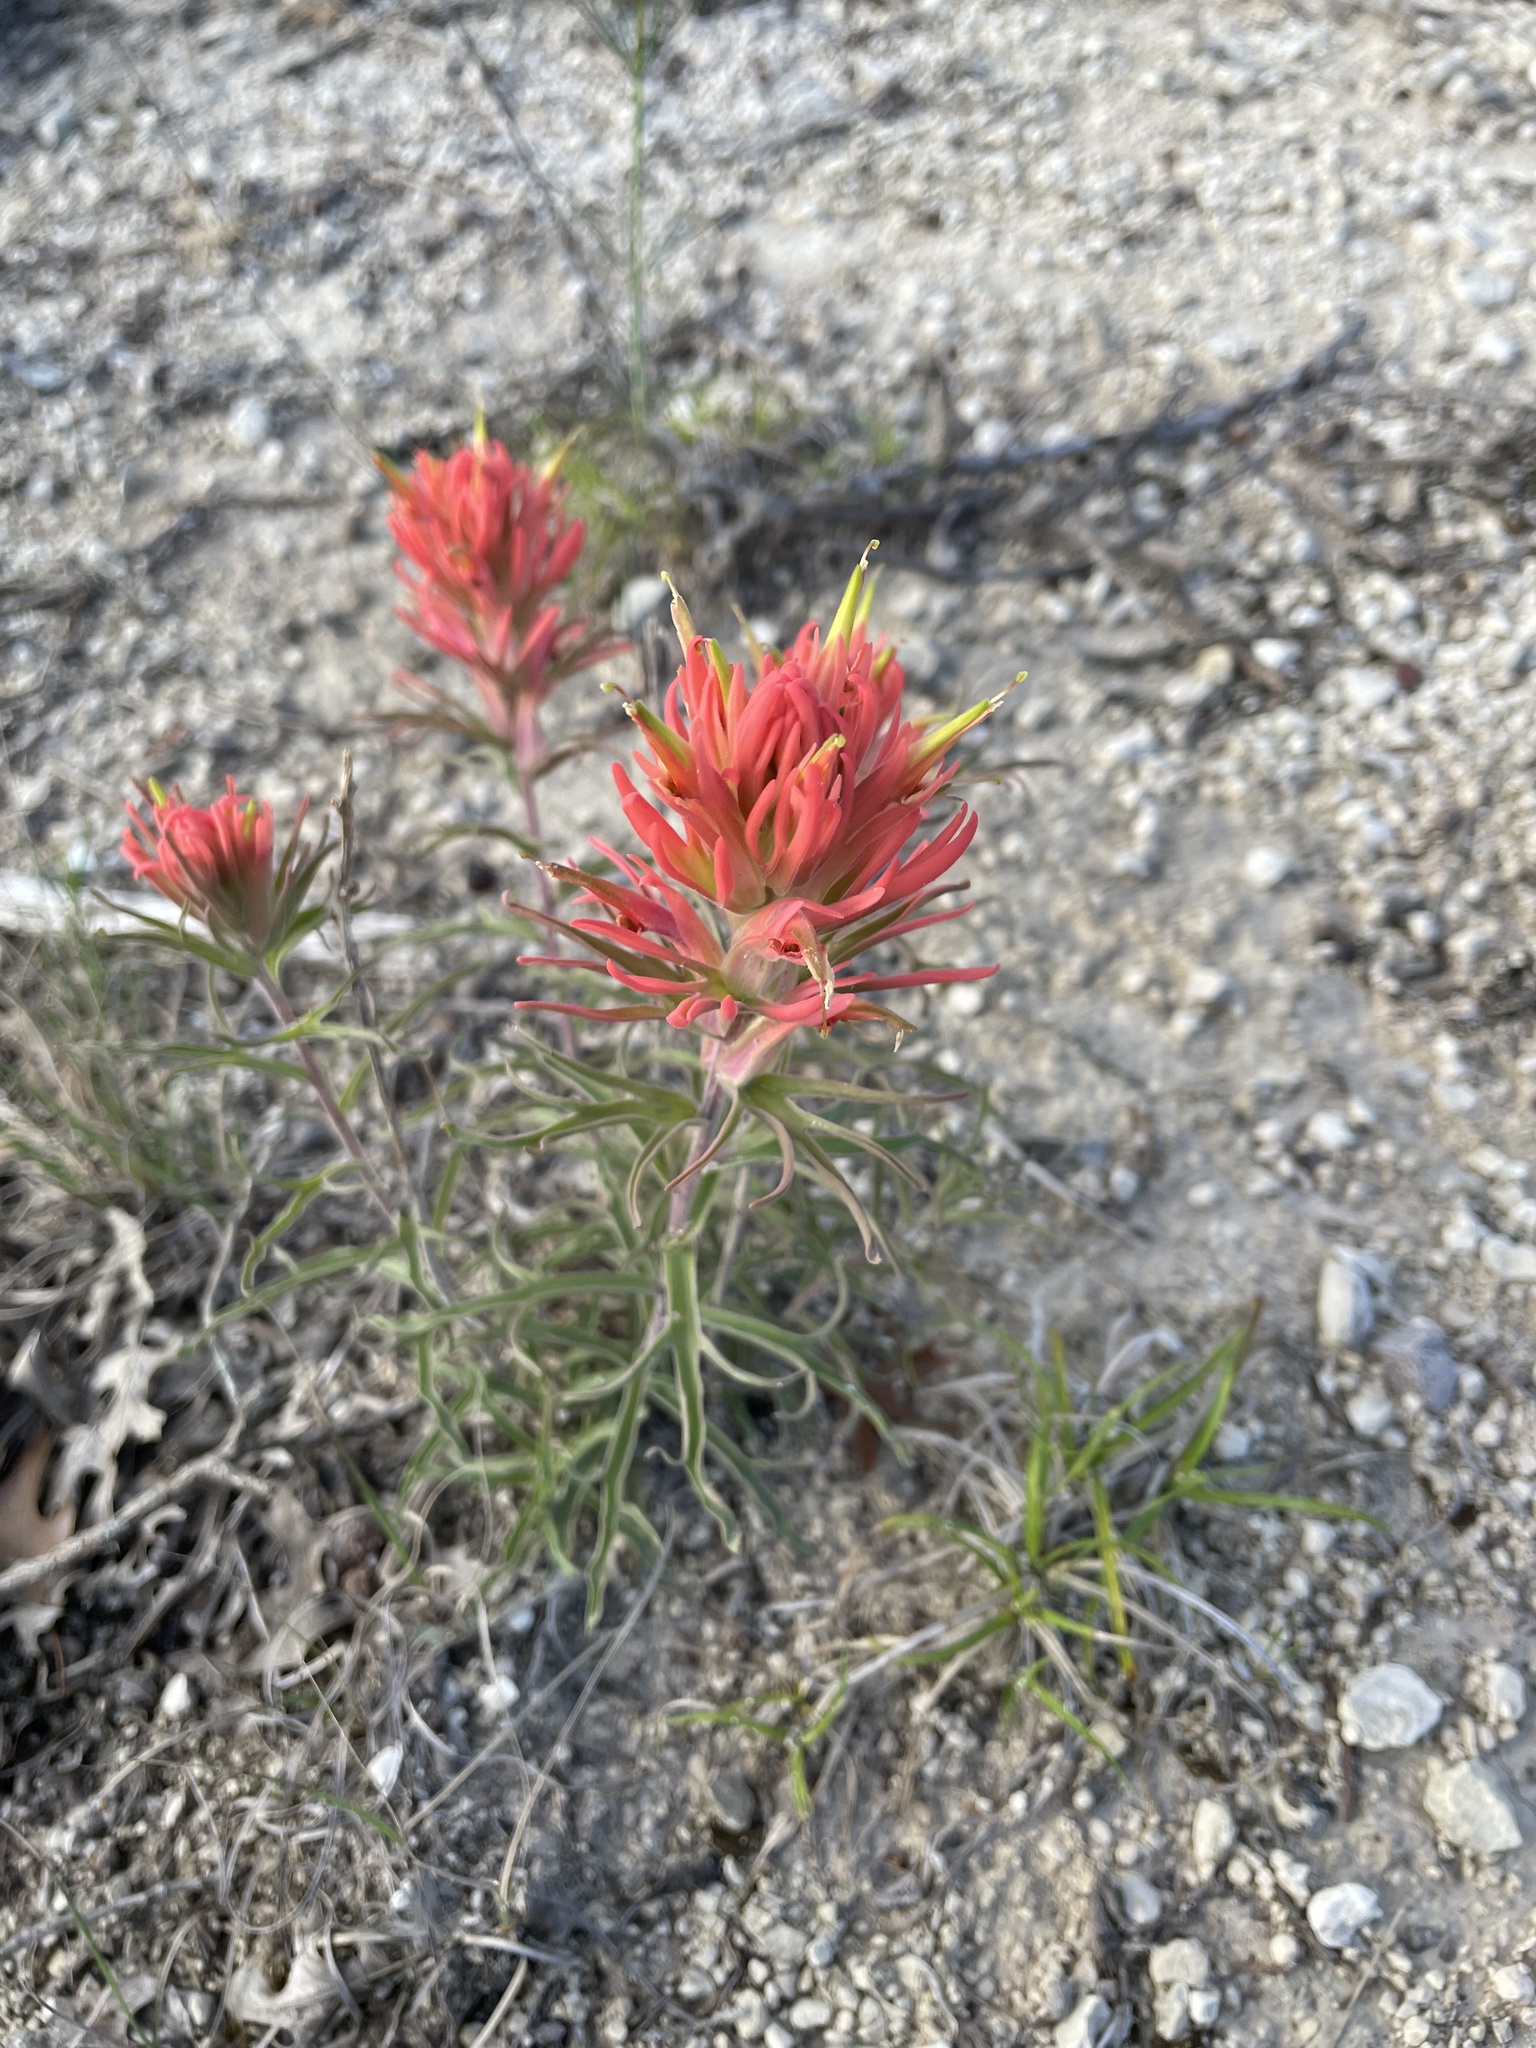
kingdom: Plantae
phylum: Tracheophyta
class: Magnoliopsida
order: Lamiales
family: Orobanchaceae
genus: Castilleja
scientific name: Castilleja lindheimeri
